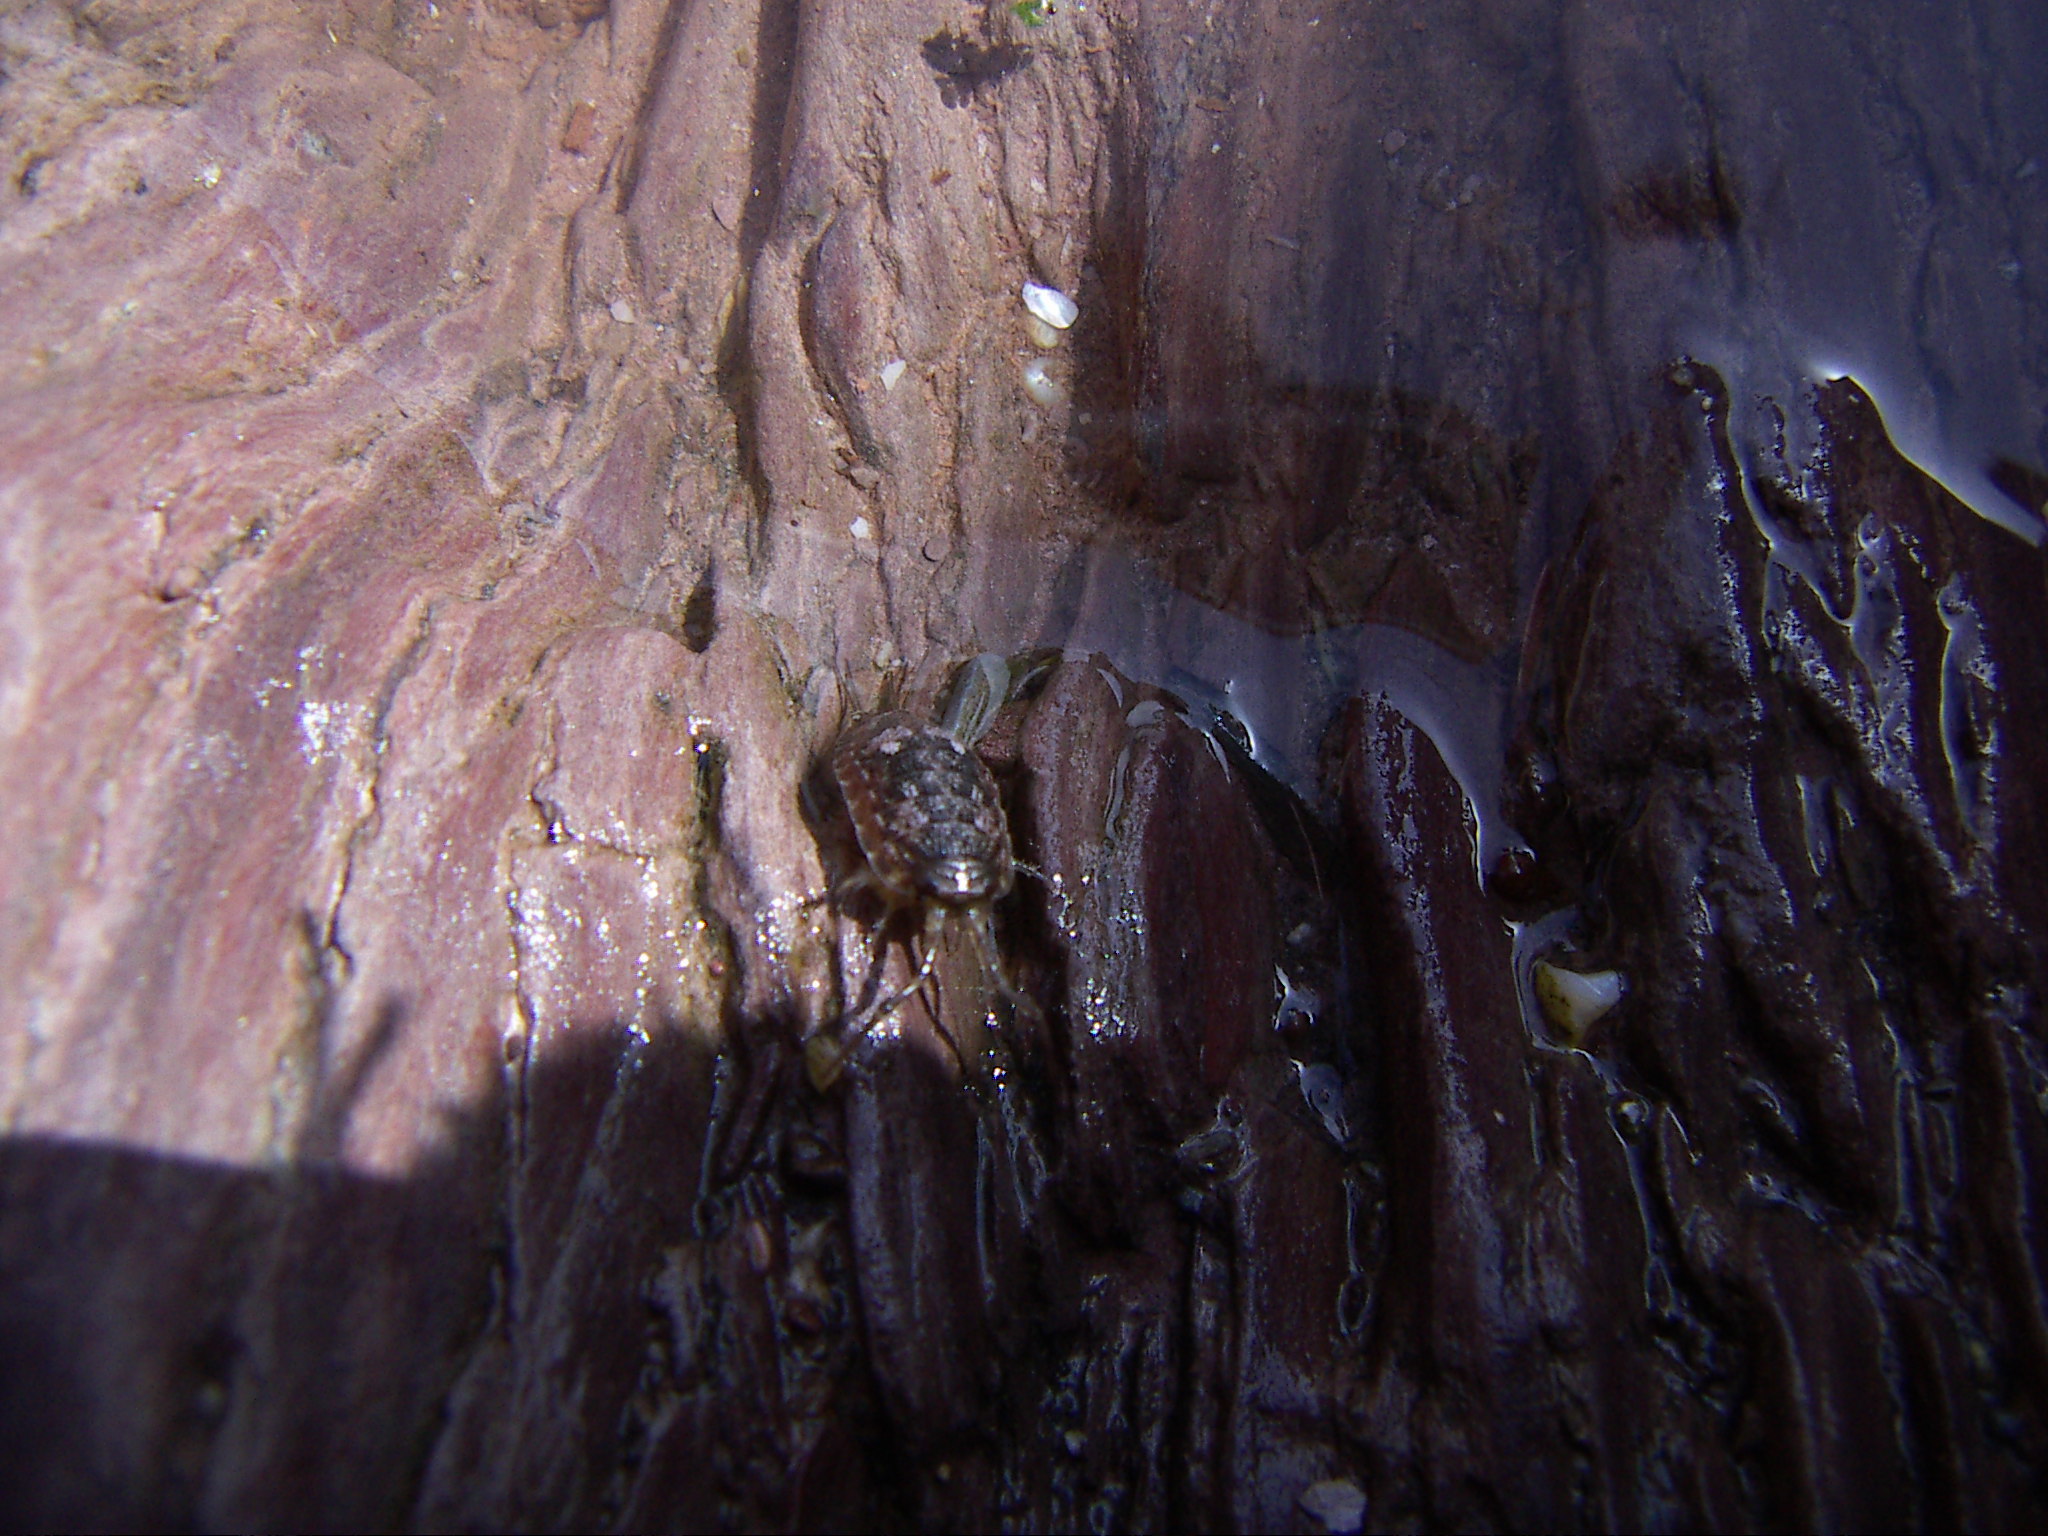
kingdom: Animalia
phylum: Arthropoda
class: Malacostraca
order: Isopoda
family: Ligiidae
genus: Ligia
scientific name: Ligia oceanica
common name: Sea slater
